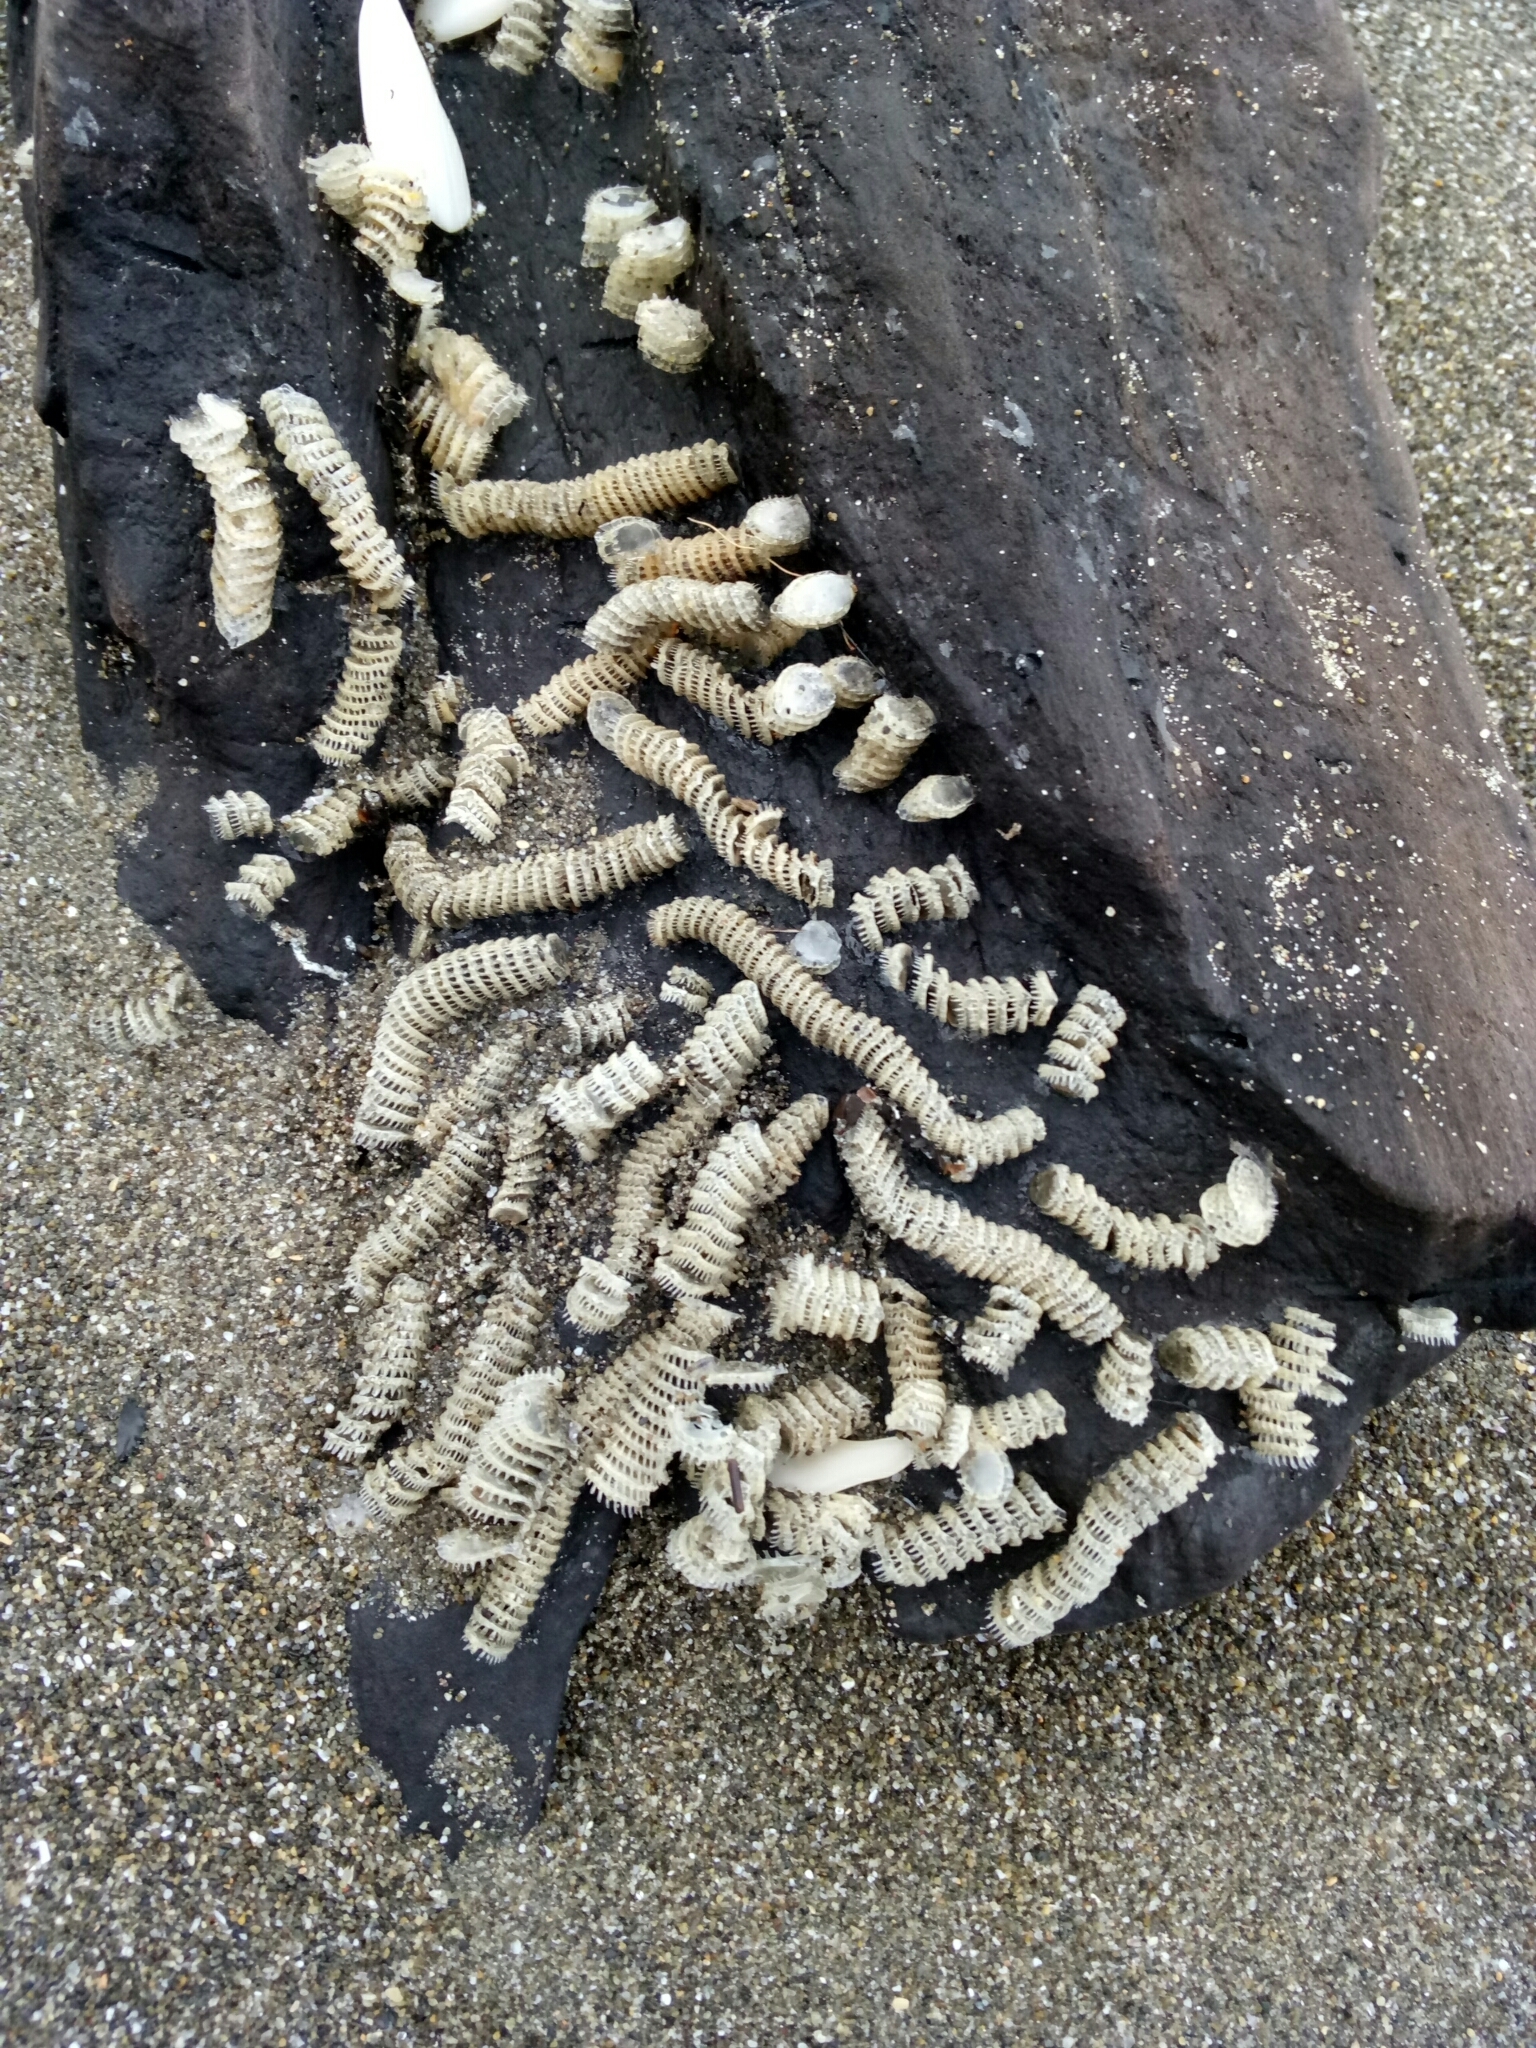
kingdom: Animalia
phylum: Mollusca
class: Gastropoda
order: Neogastropoda
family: Muricidae
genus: Poirieria
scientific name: Poirieria zelandica
